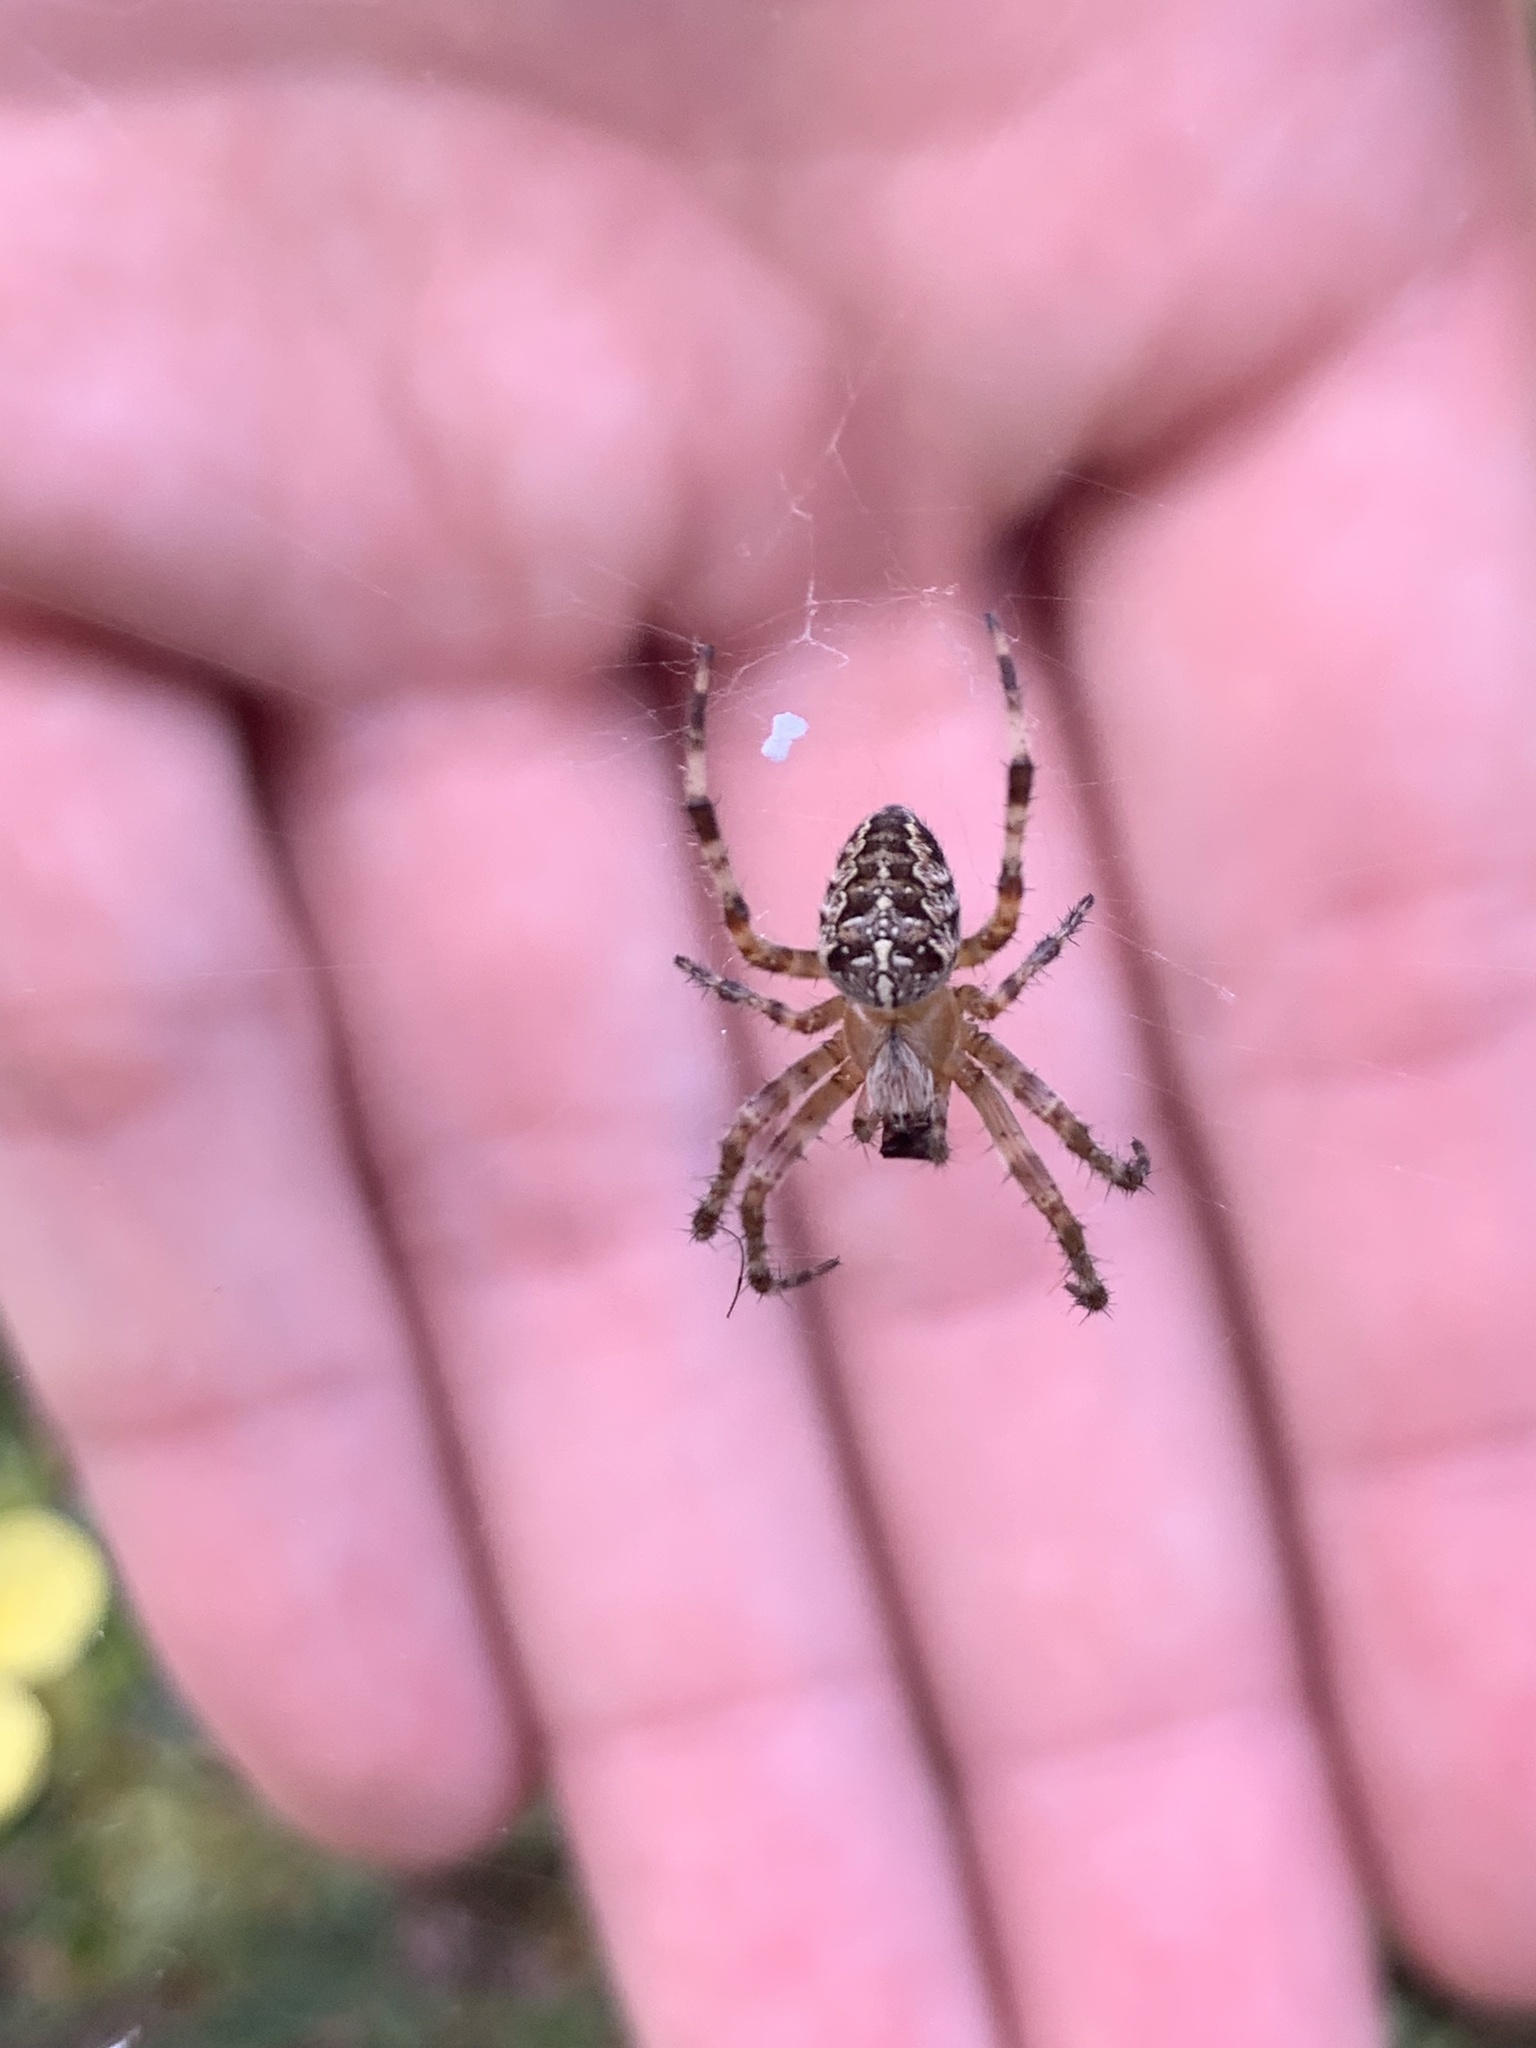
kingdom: Animalia
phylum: Arthropoda
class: Arachnida
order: Araneae
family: Araneidae
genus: Araneus
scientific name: Araneus diadematus
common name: Cross orbweaver
